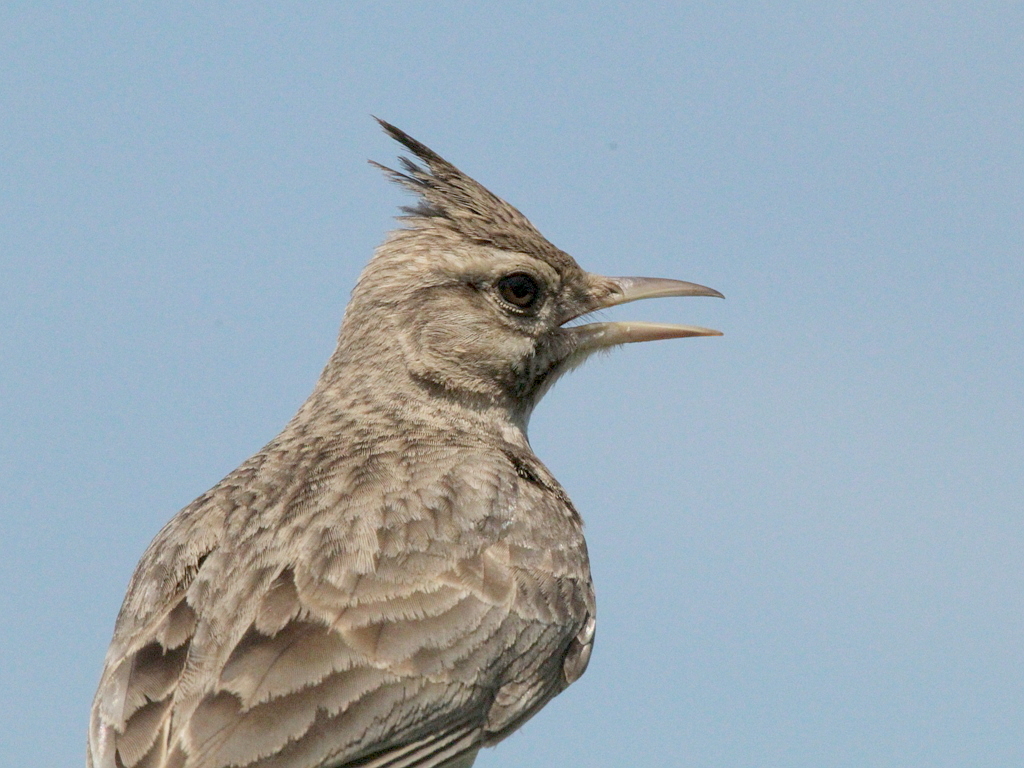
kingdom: Animalia
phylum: Chordata
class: Aves
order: Passeriformes
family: Alaudidae
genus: Galerida
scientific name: Galerida cristata
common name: Crested lark
